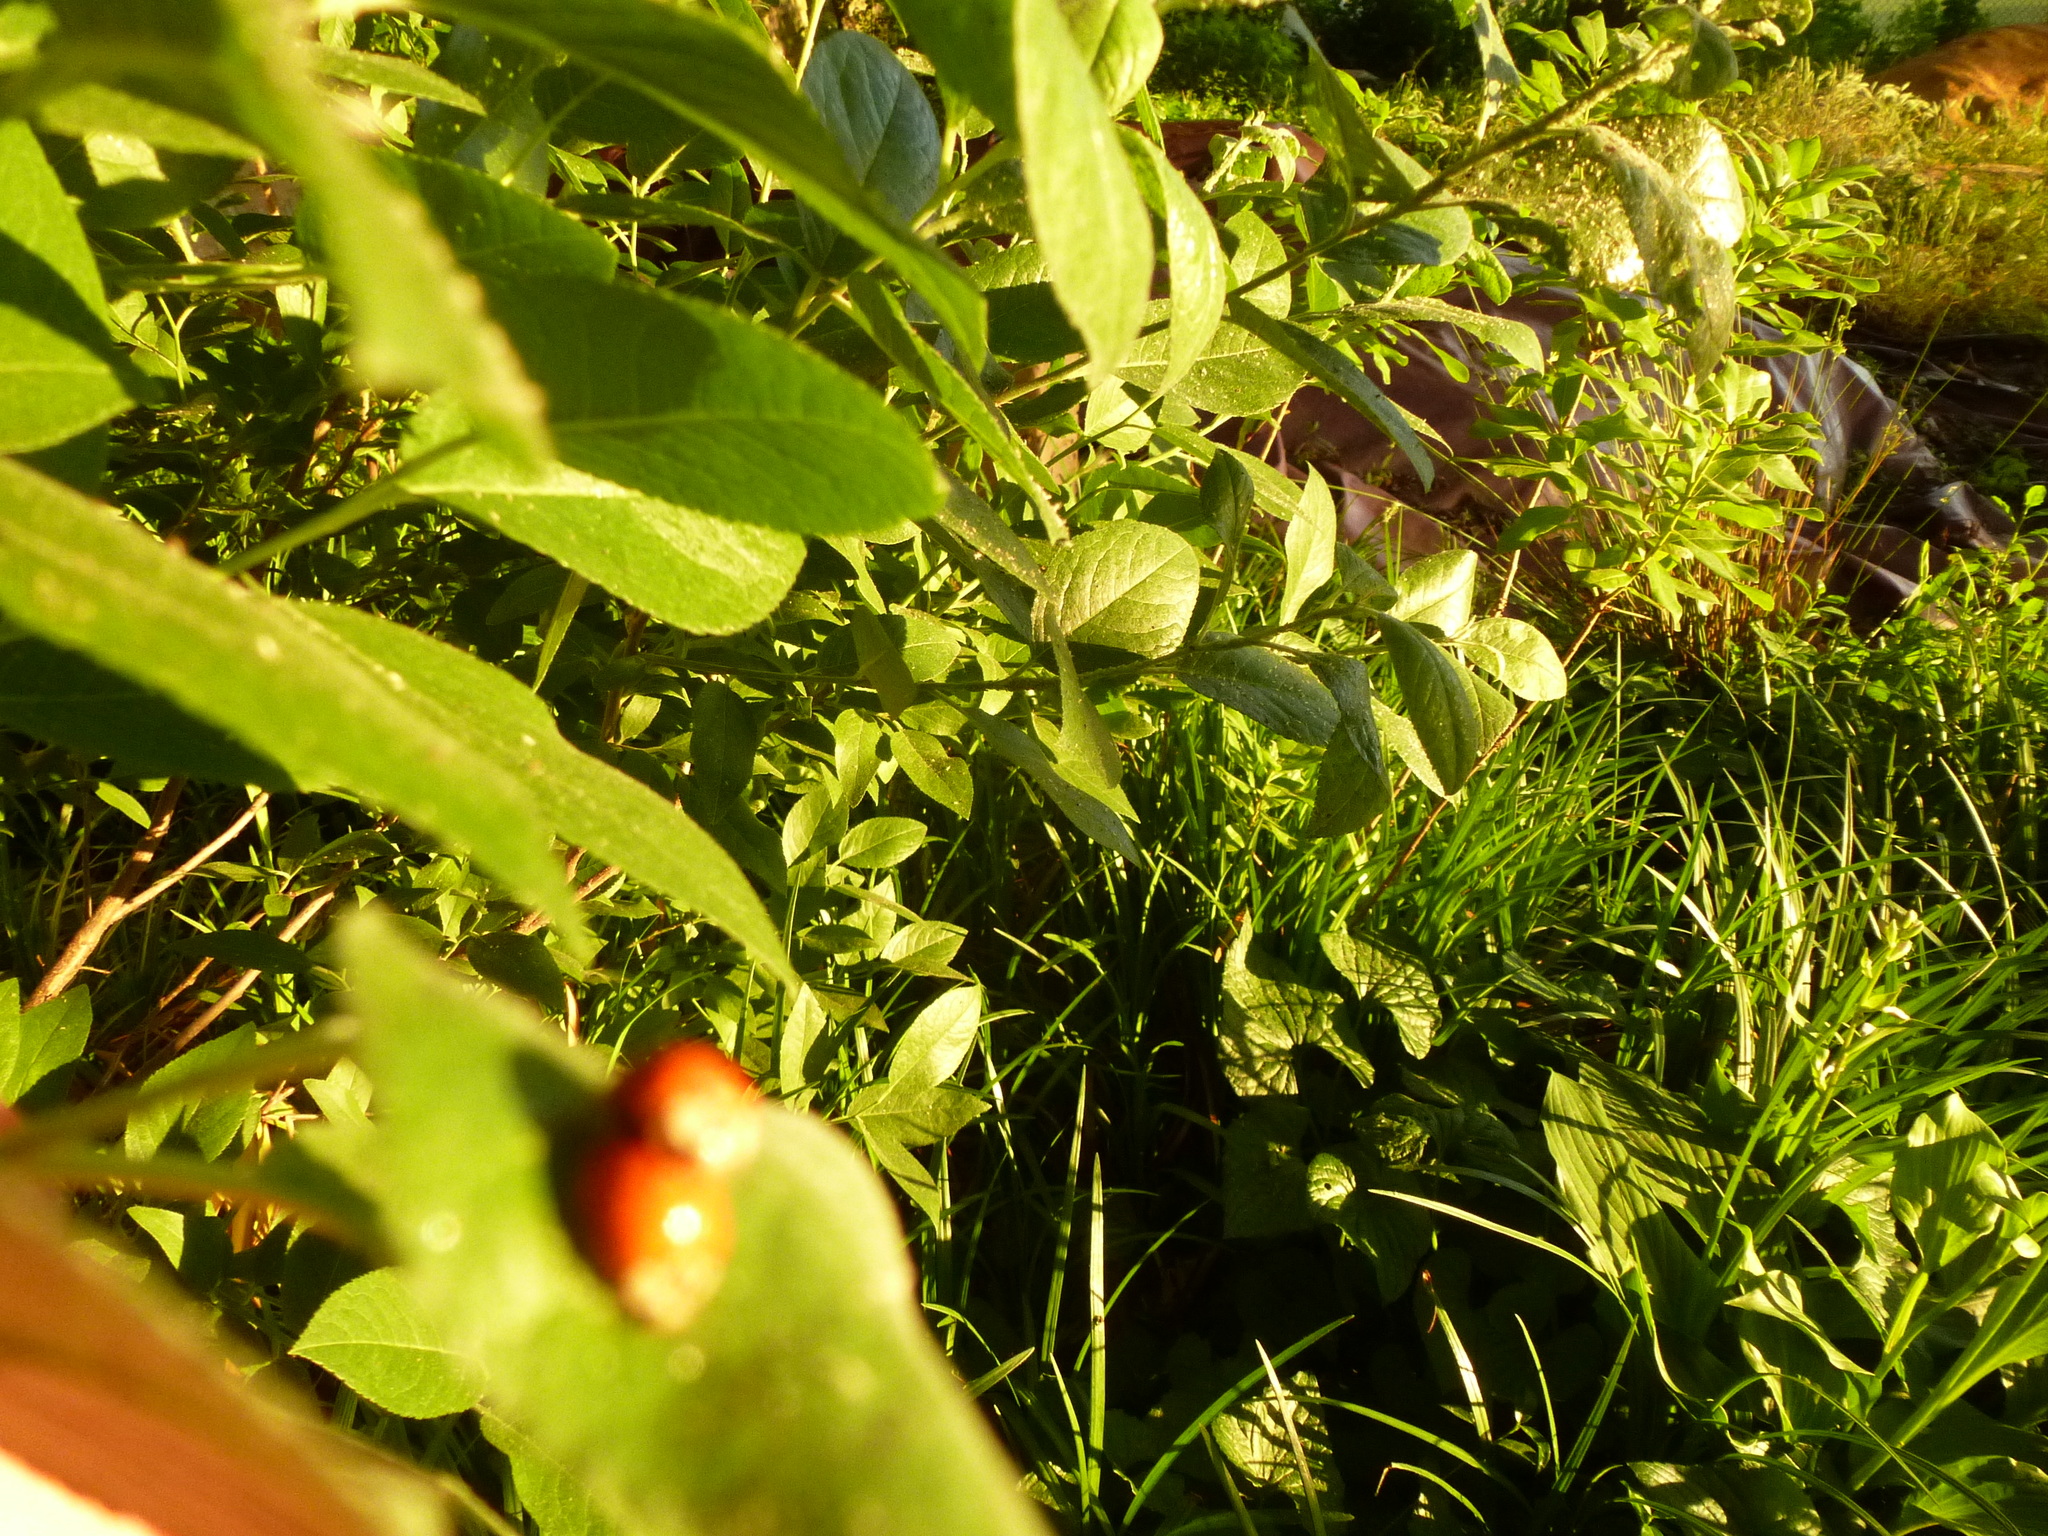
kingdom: Animalia
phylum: Arthropoda
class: Insecta
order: Coleoptera
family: Coccinellidae
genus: Harmonia
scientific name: Harmonia axyridis
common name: Harlequin ladybird
